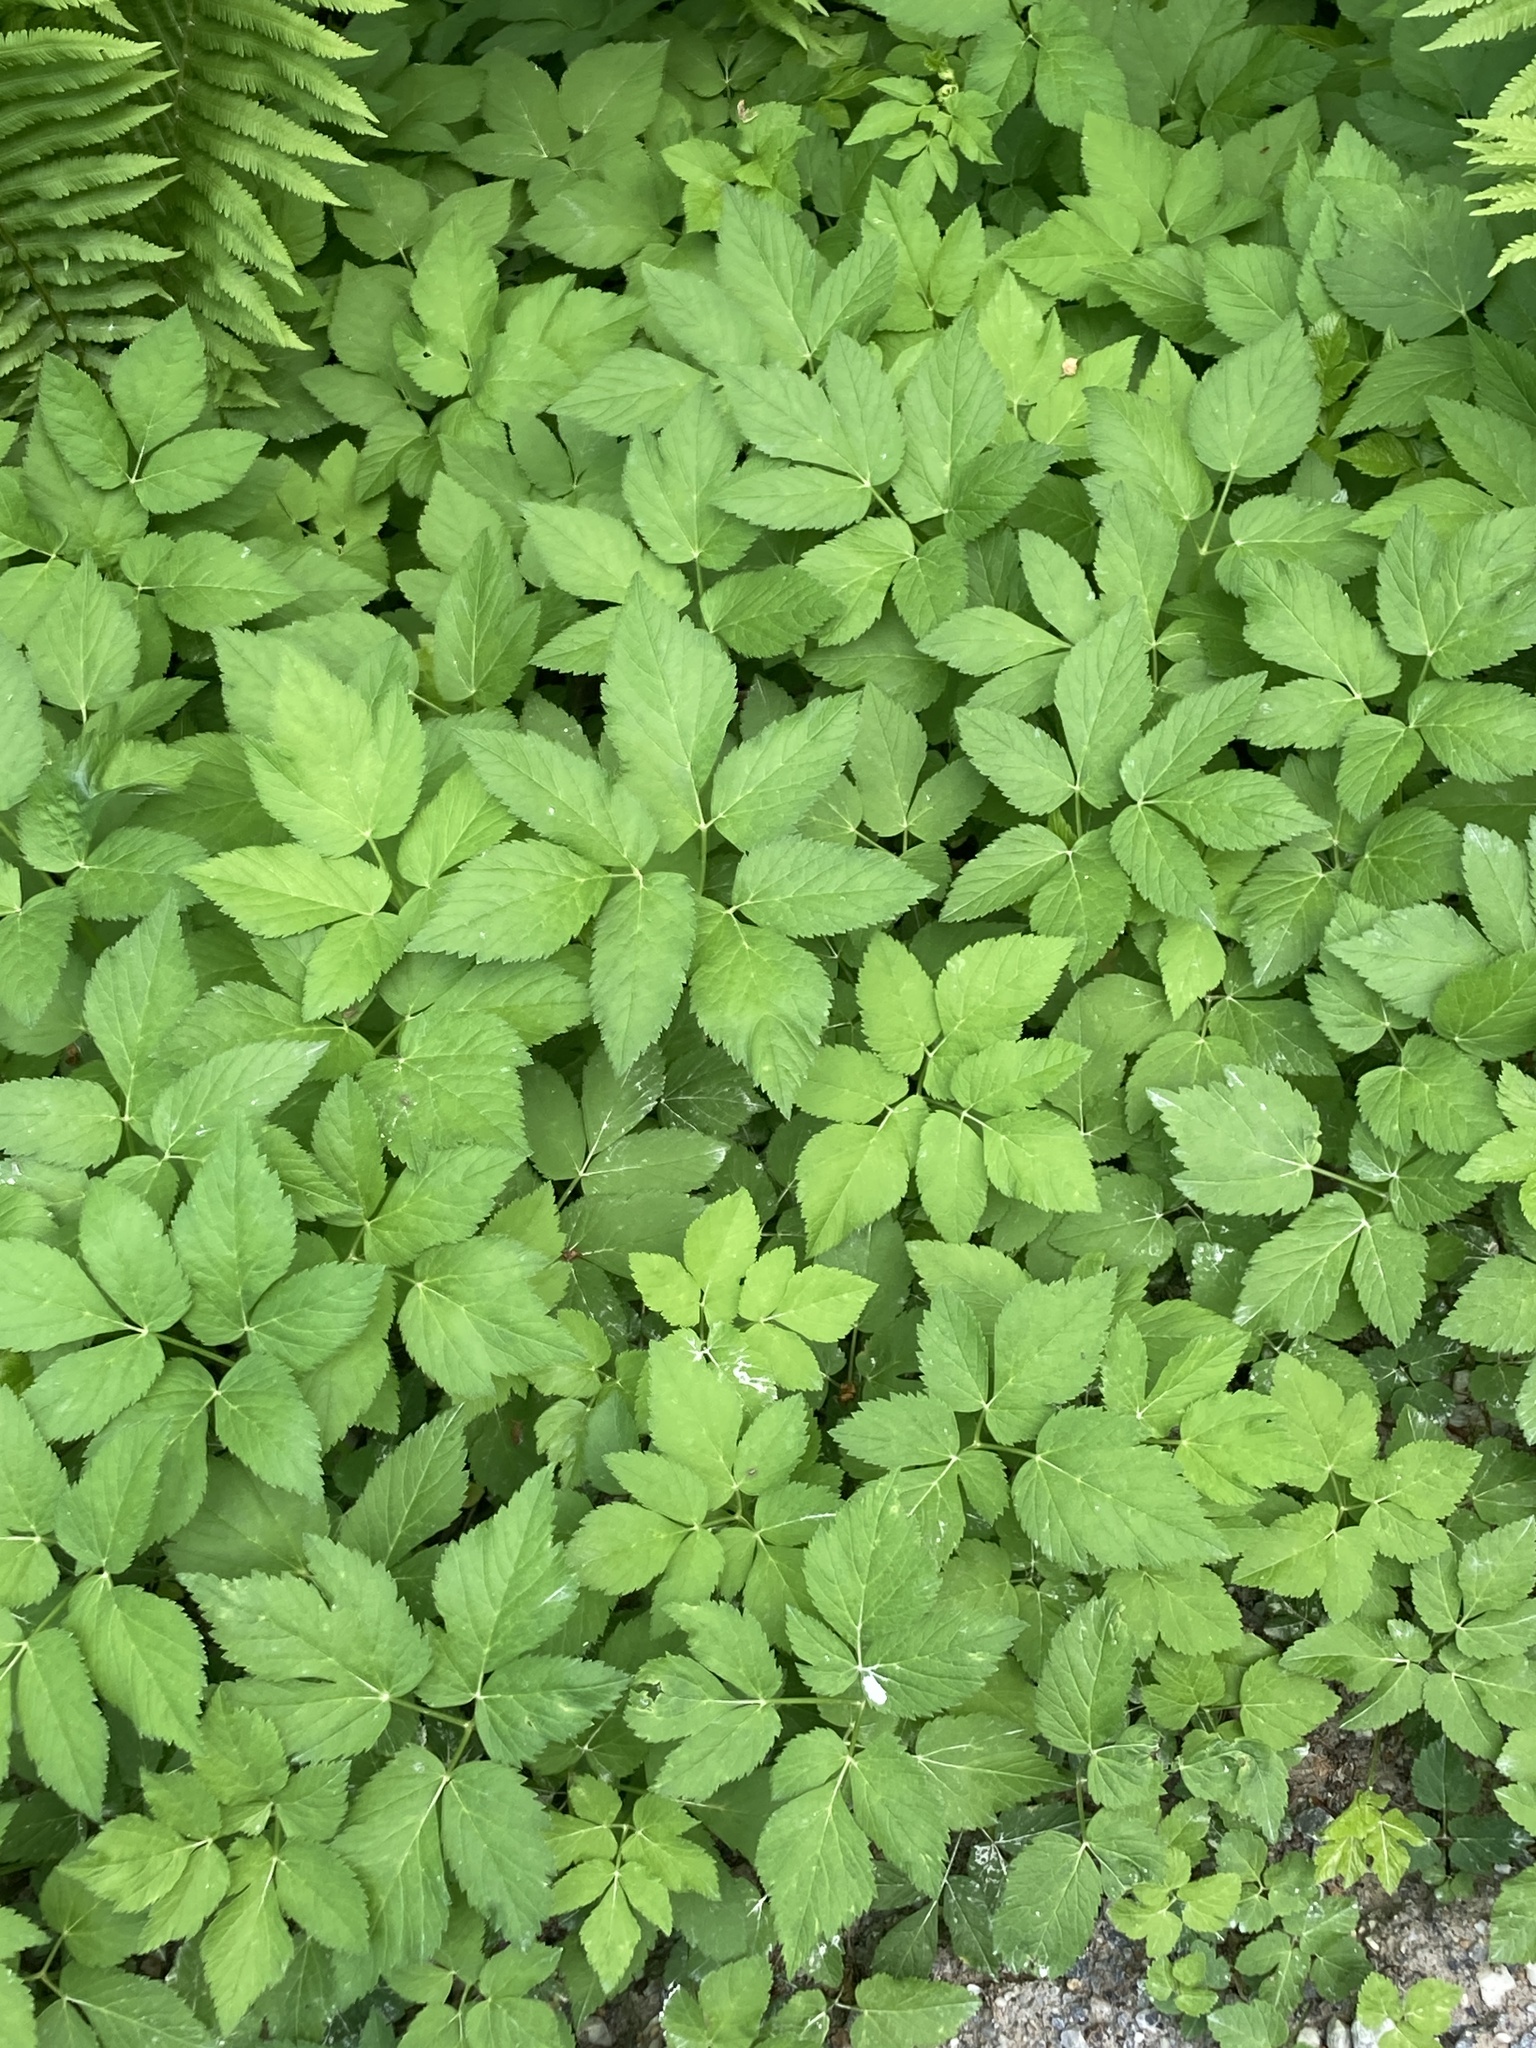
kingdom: Plantae
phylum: Tracheophyta
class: Magnoliopsida
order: Apiales
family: Apiaceae
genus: Aegopodium
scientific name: Aegopodium podagraria
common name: Ground-elder
